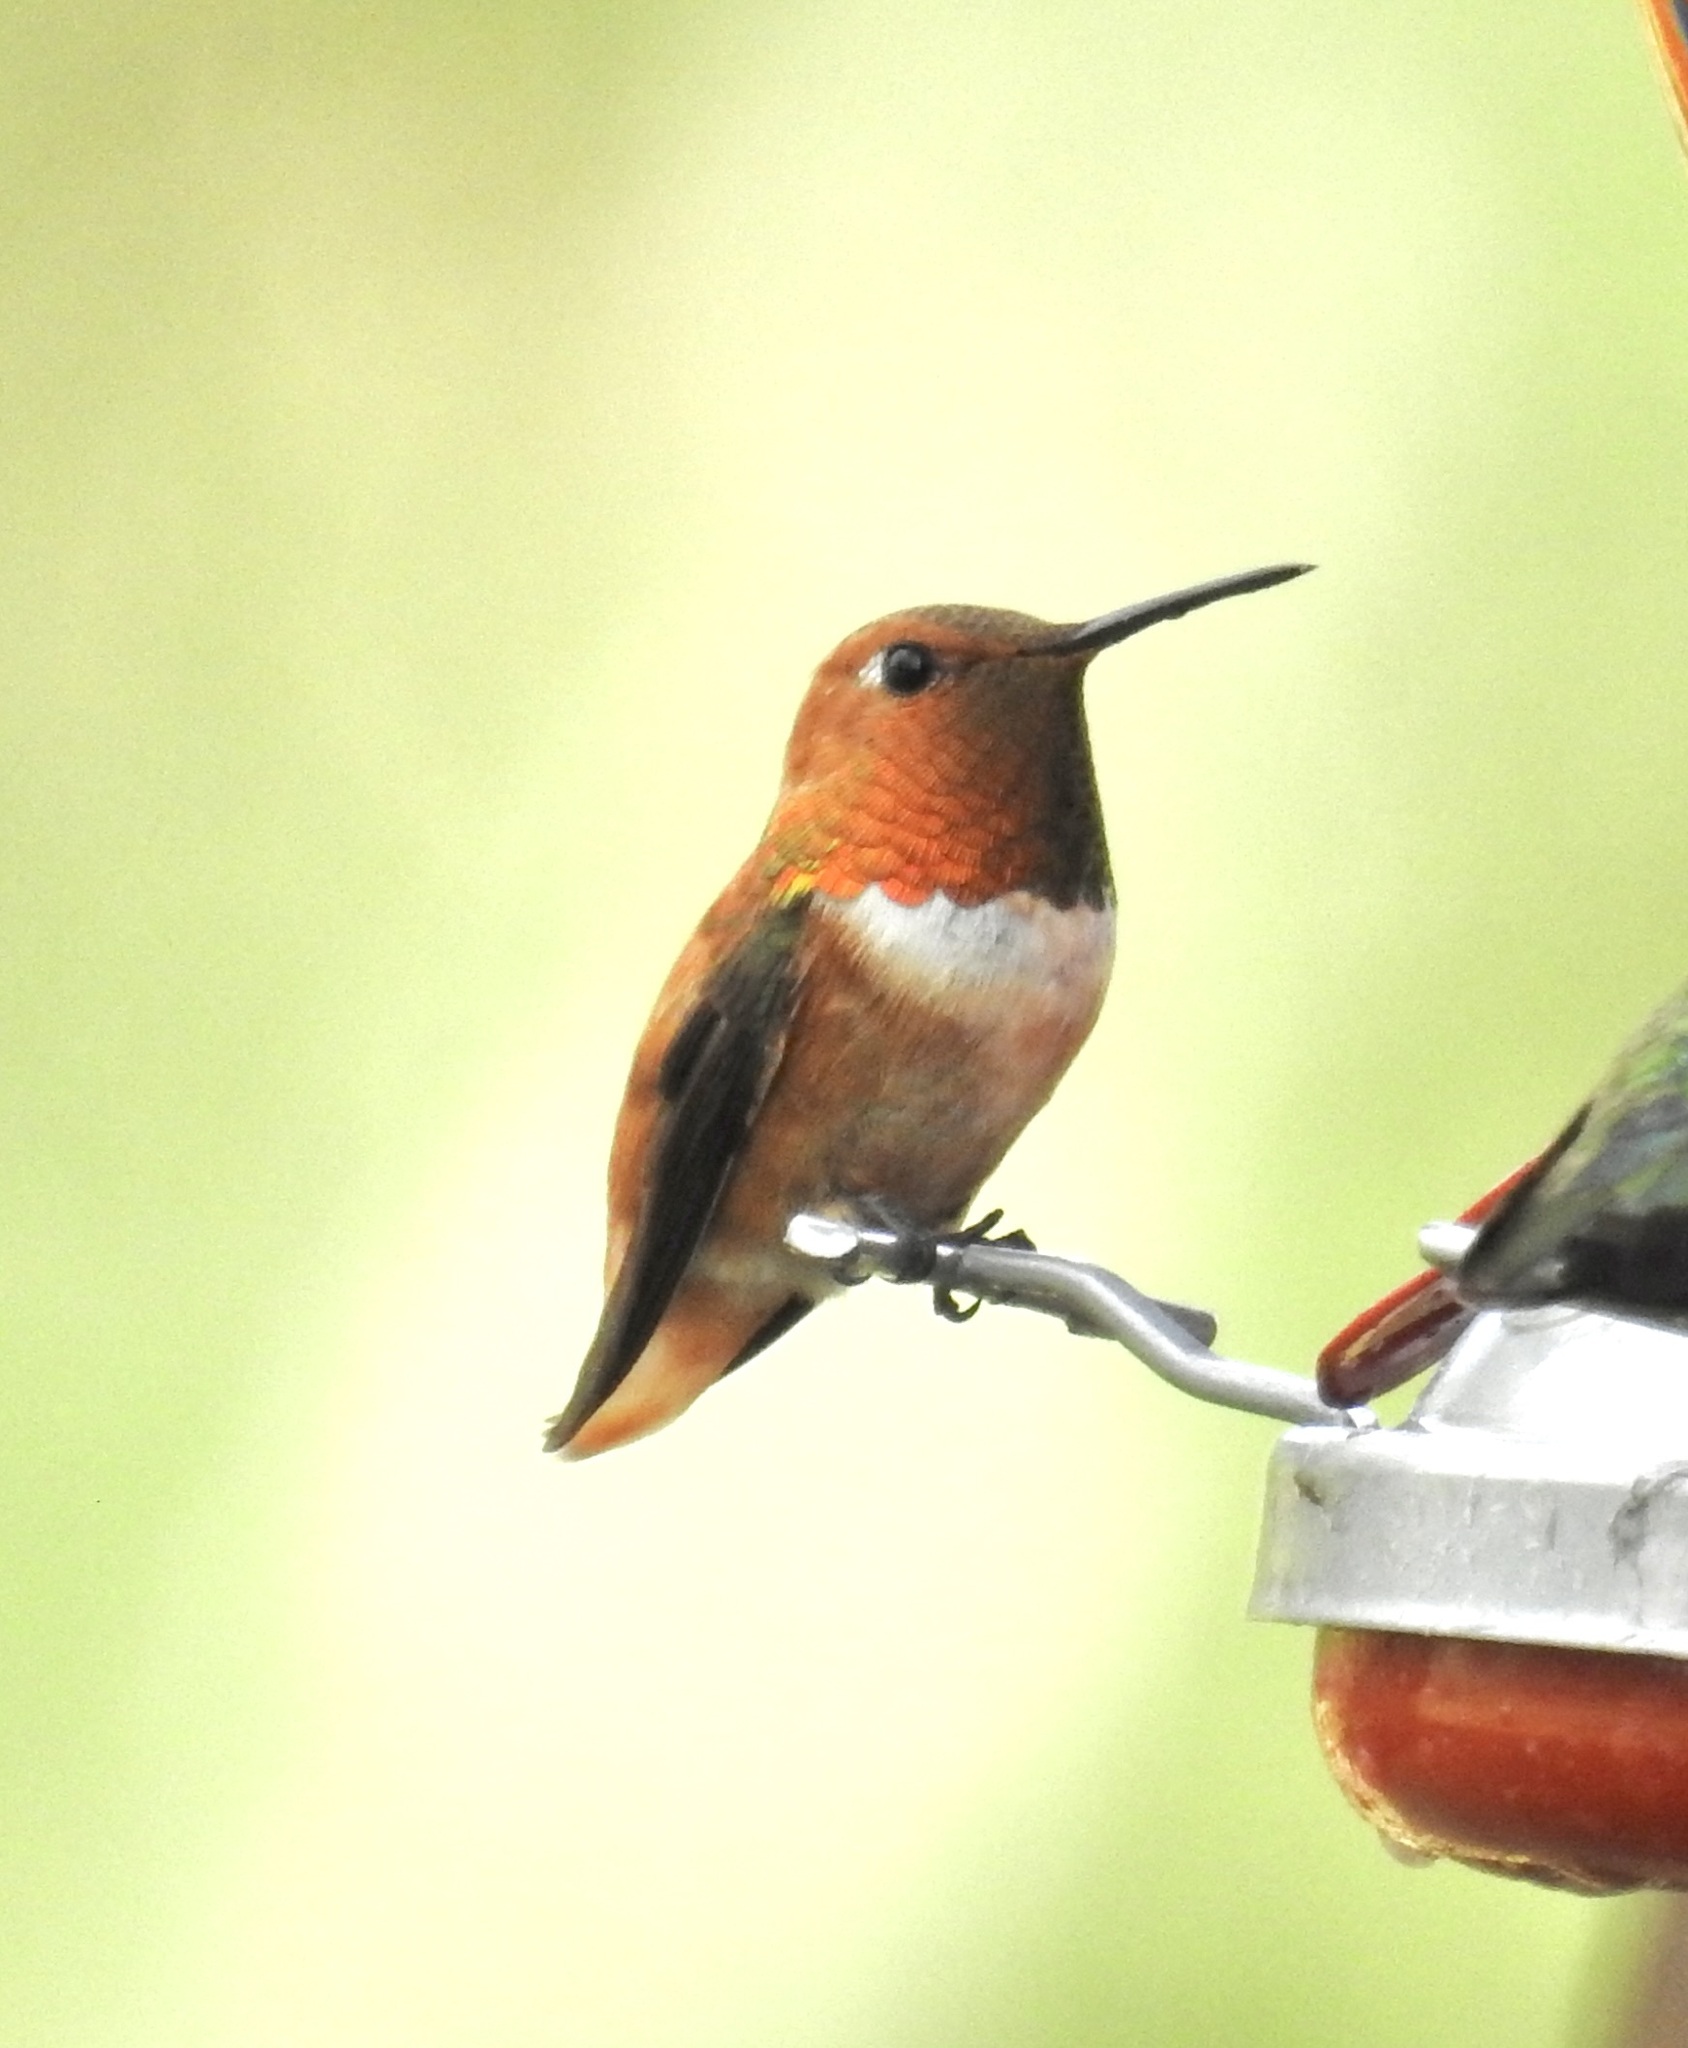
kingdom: Animalia
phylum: Chordata
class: Aves
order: Apodiformes
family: Trochilidae
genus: Selasphorus
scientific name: Selasphorus rufus
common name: Rufous hummingbird
